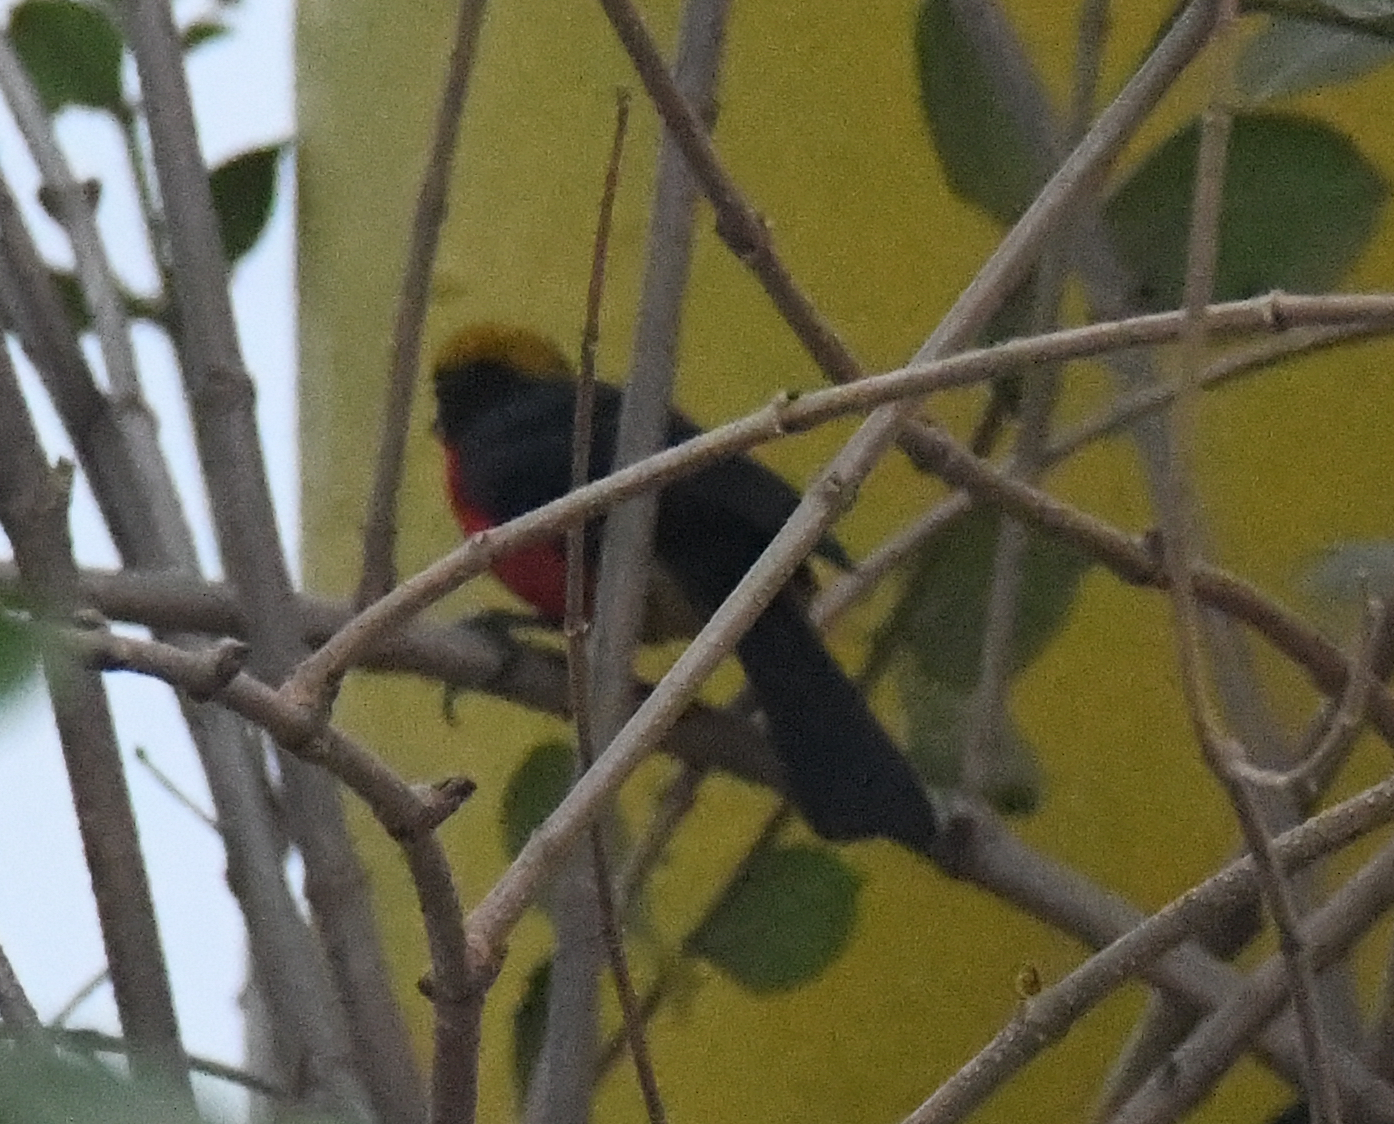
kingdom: Animalia
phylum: Chordata
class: Aves
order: Passeriformes
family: Malaconotidae
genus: Laniarius
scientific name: Laniarius barbarus
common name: Yellow-crowned gonolek
